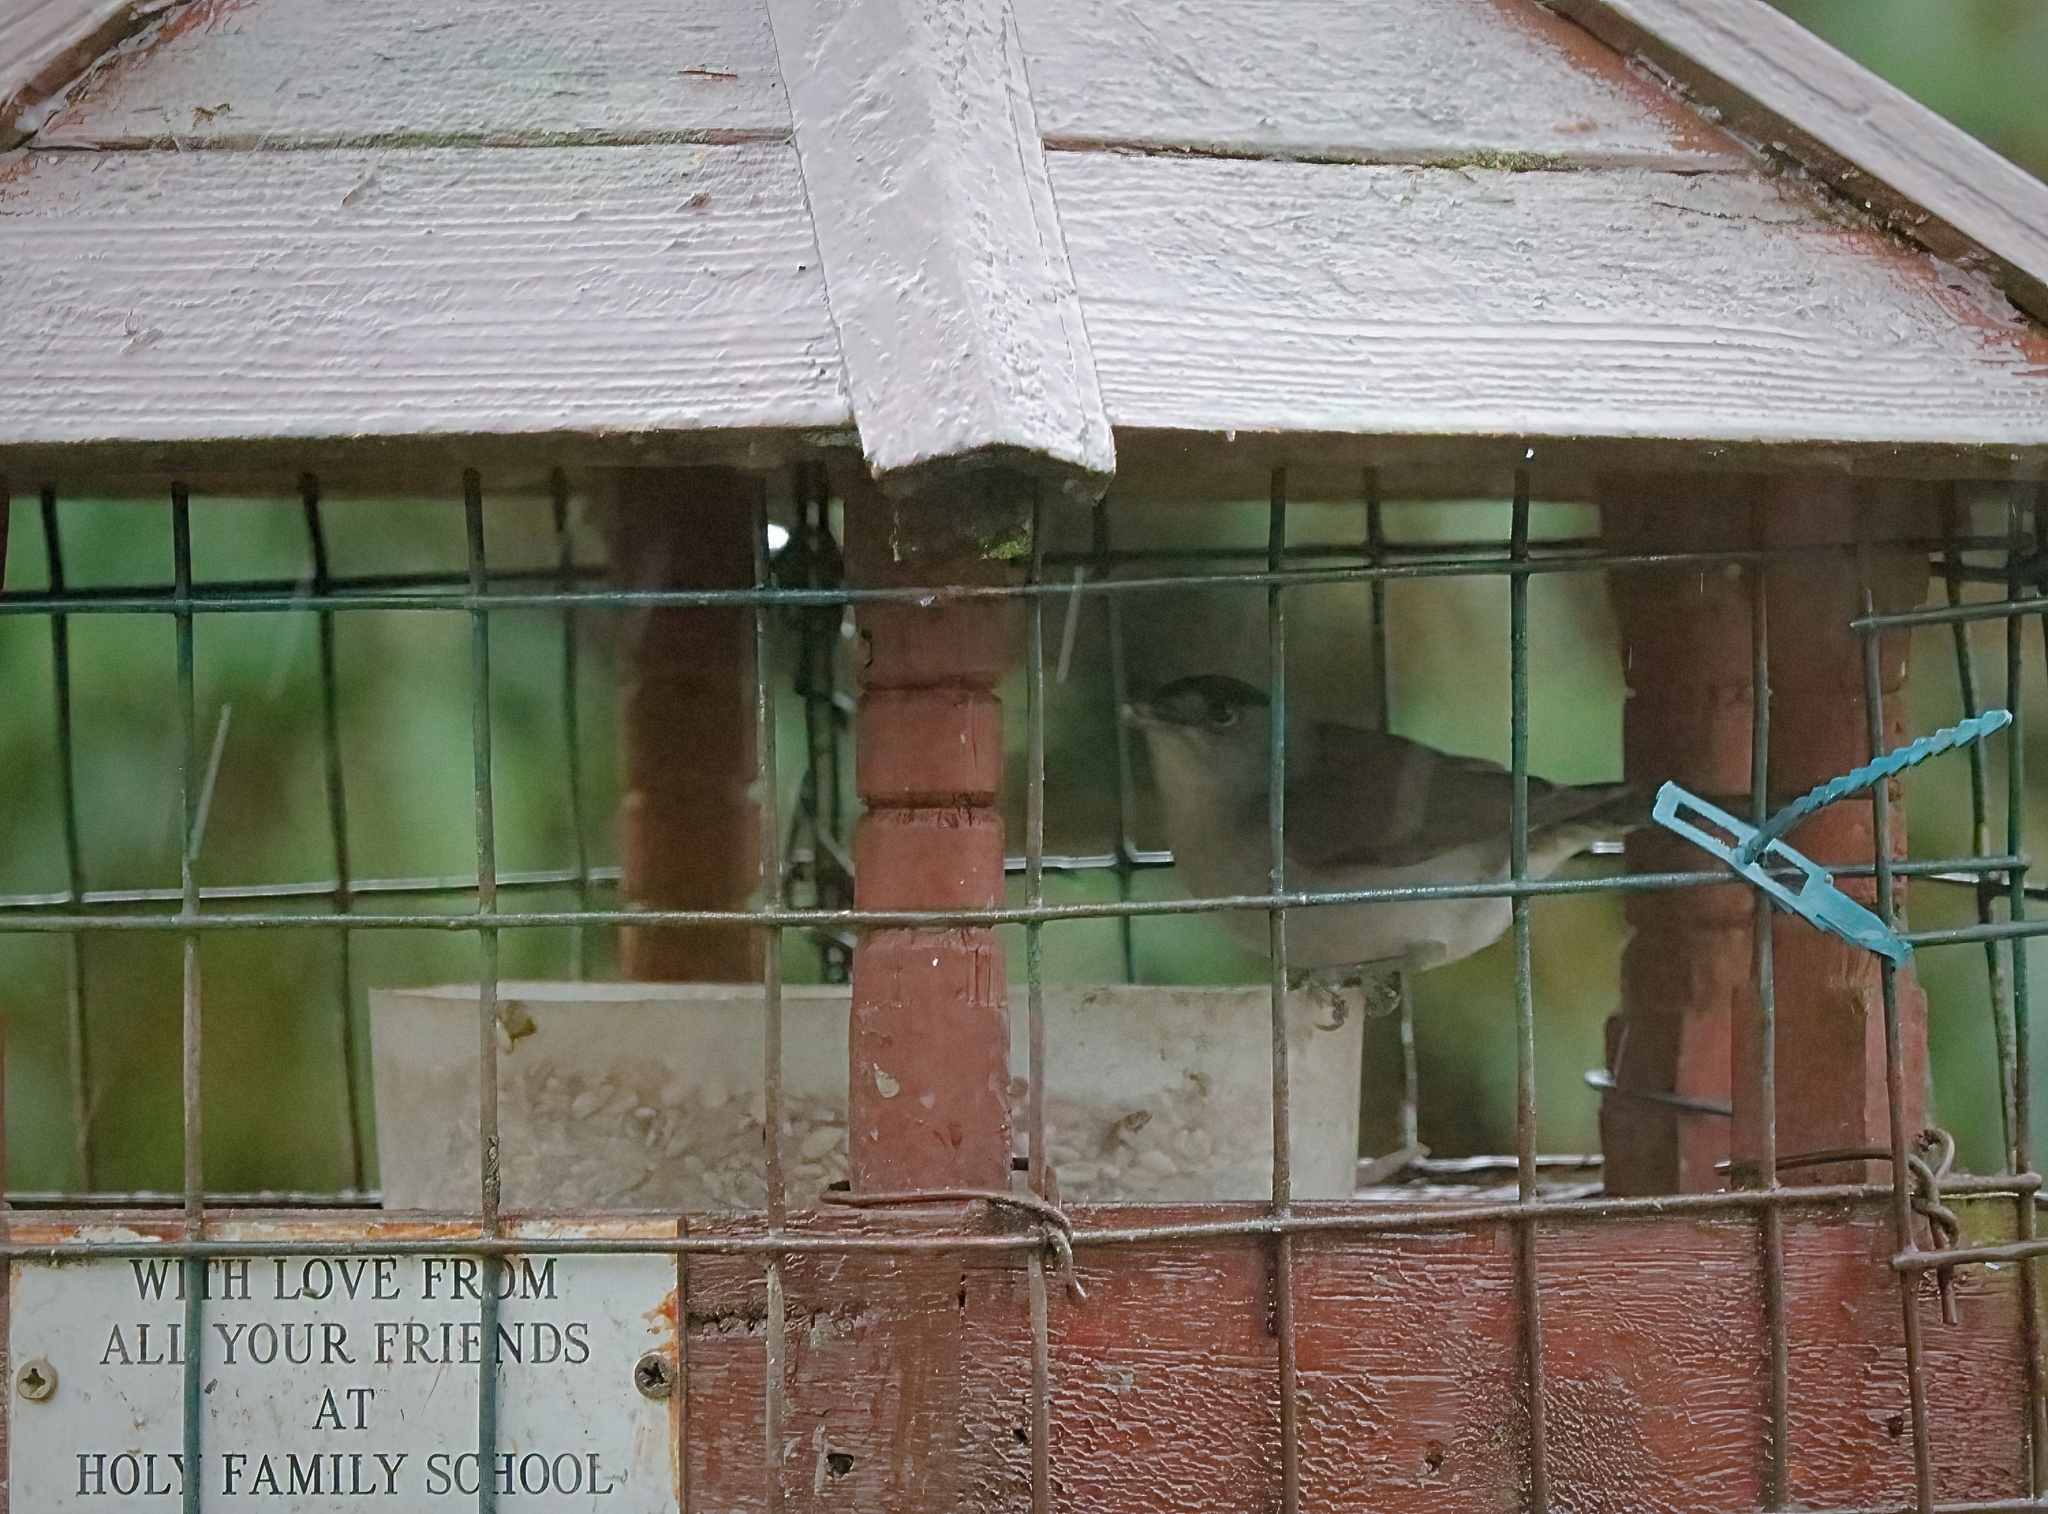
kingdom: Animalia
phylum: Chordata
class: Aves
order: Passeriformes
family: Sylviidae
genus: Sylvia
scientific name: Sylvia atricapilla
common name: Eurasian blackcap
